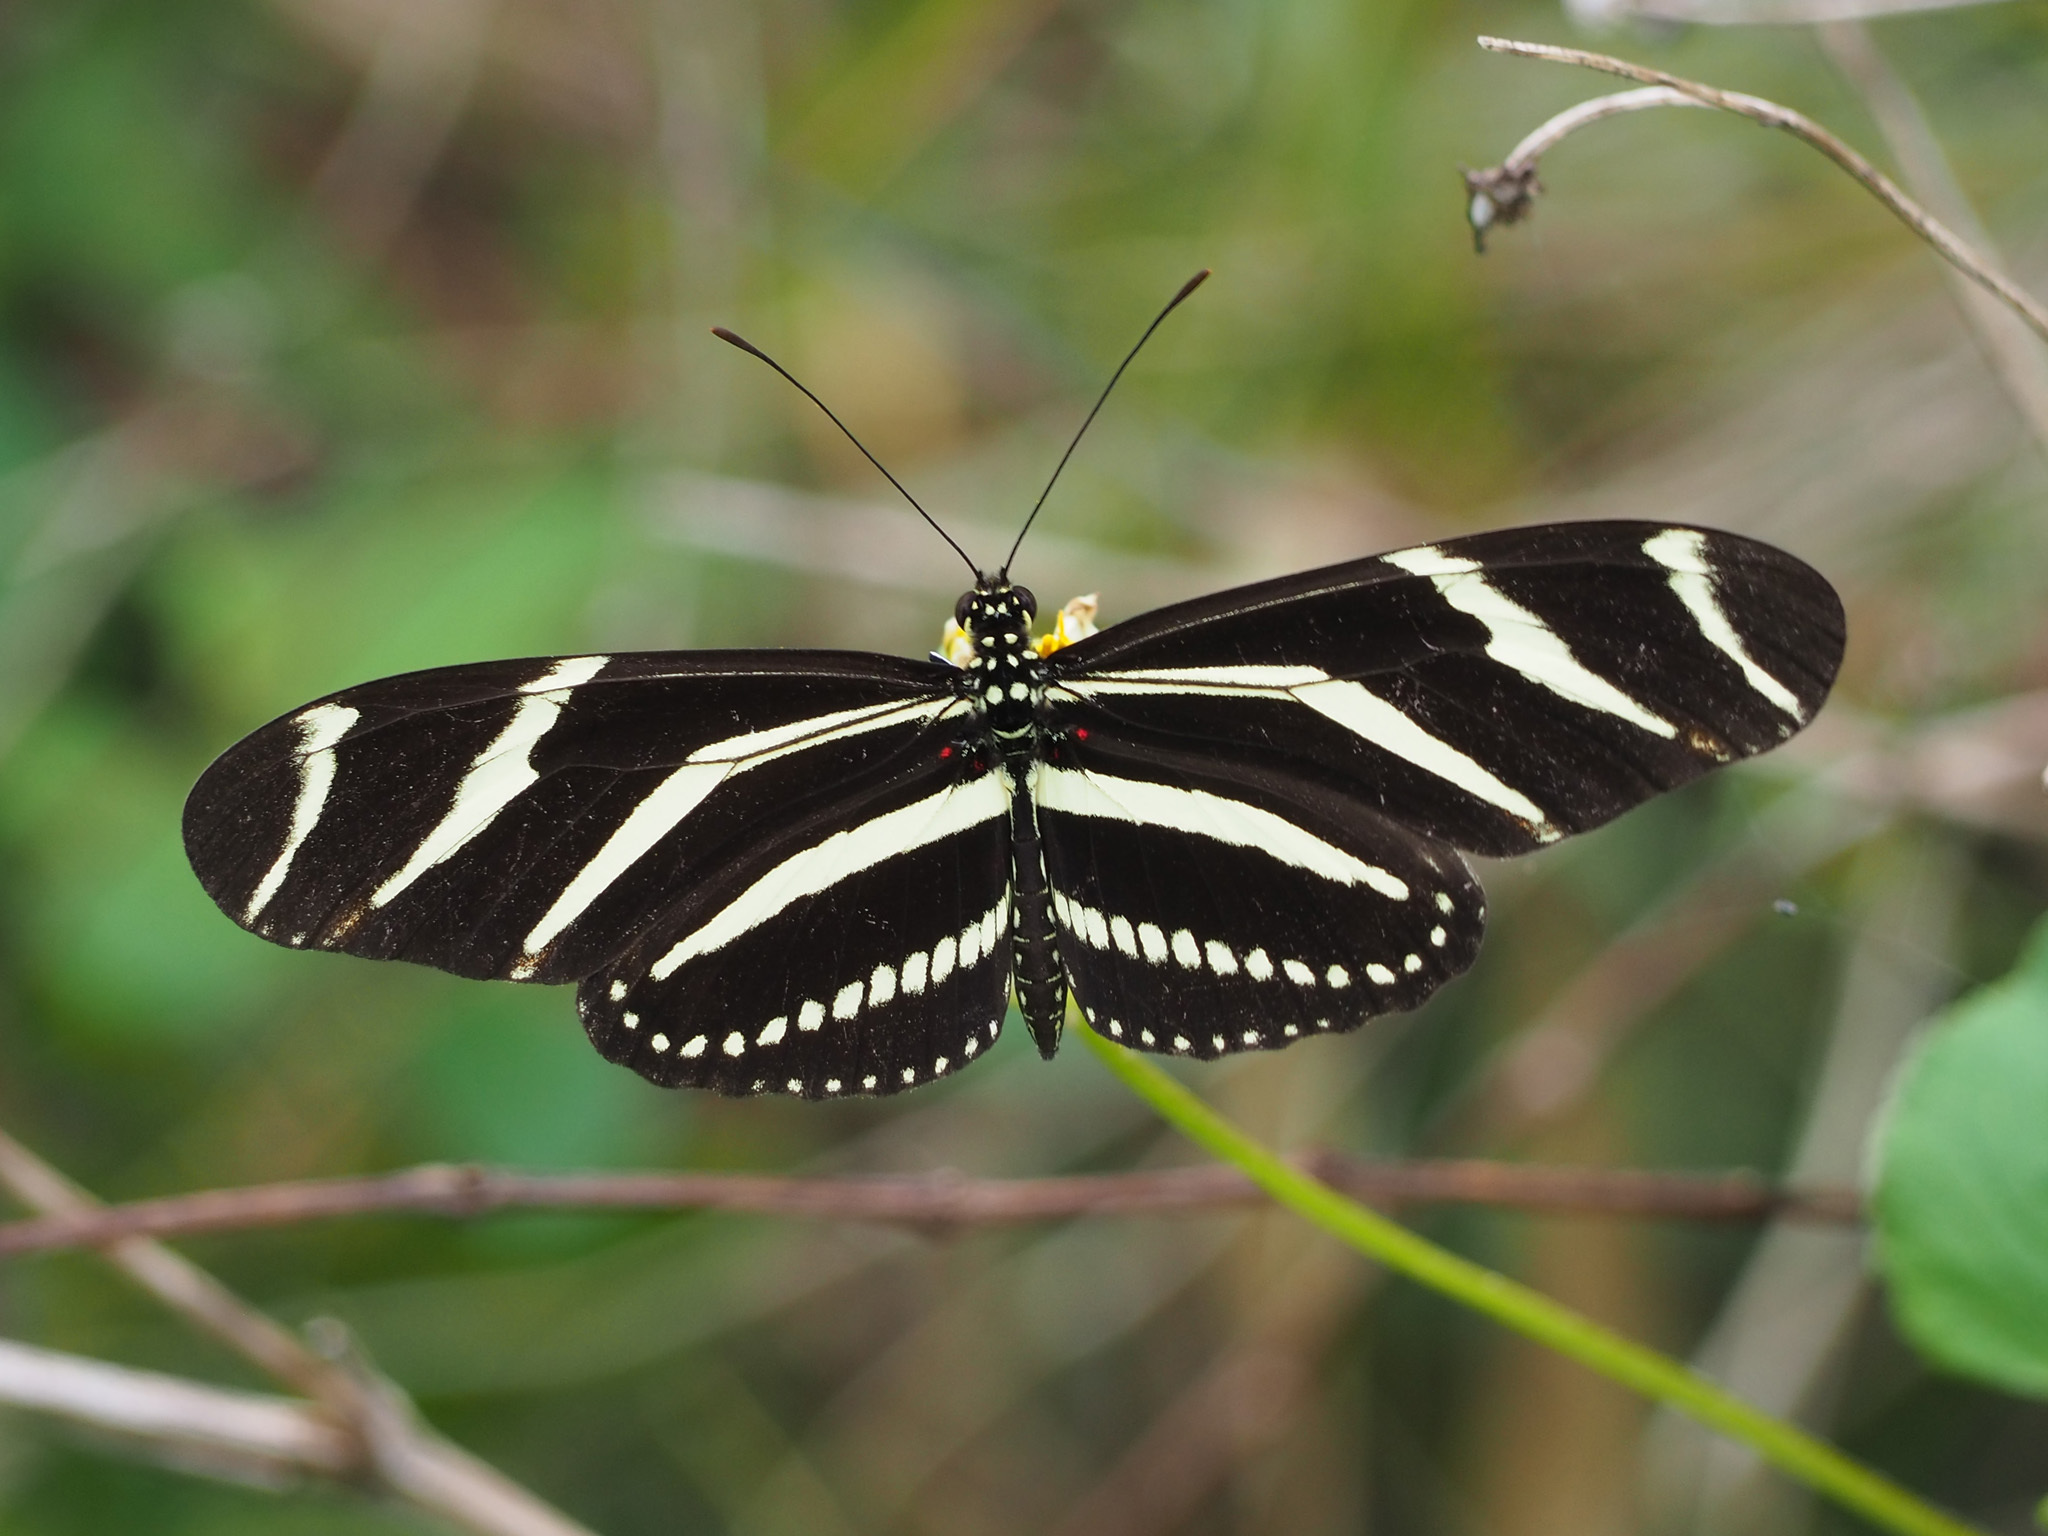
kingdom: Animalia
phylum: Arthropoda
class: Insecta
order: Lepidoptera
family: Nymphalidae
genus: Heliconius
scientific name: Heliconius charithonia
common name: Zebra long wing
